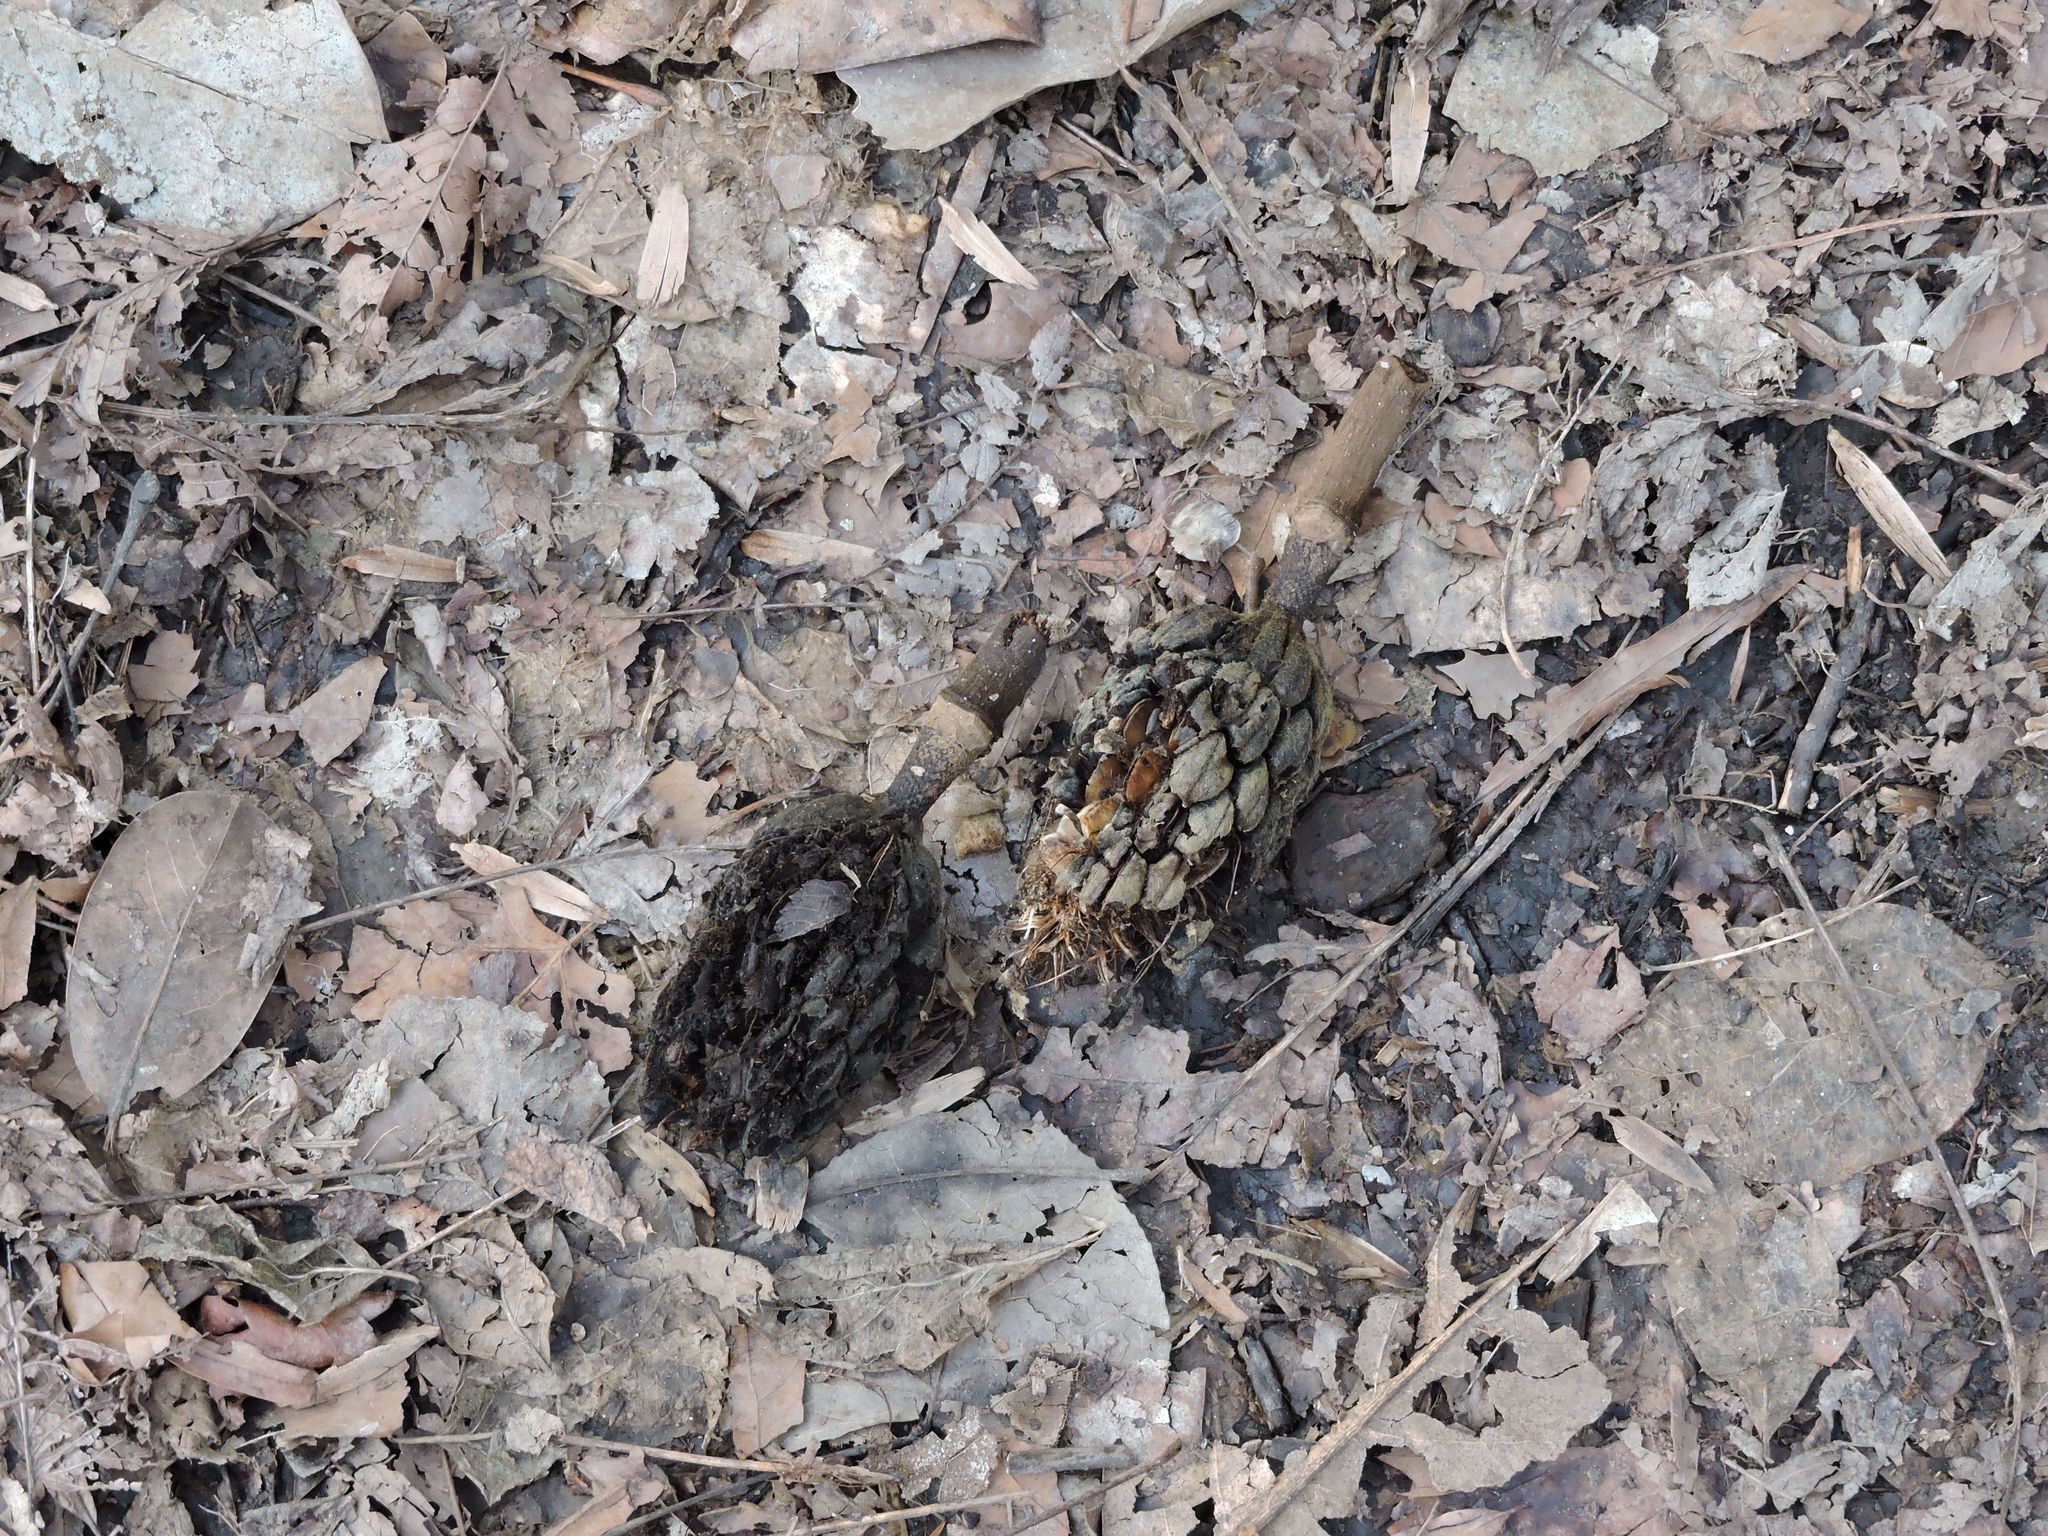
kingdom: Plantae
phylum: Tracheophyta
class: Magnoliopsida
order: Magnoliales
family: Magnoliaceae
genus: Magnolia
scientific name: Magnolia grandiflora
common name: Southern magnolia
